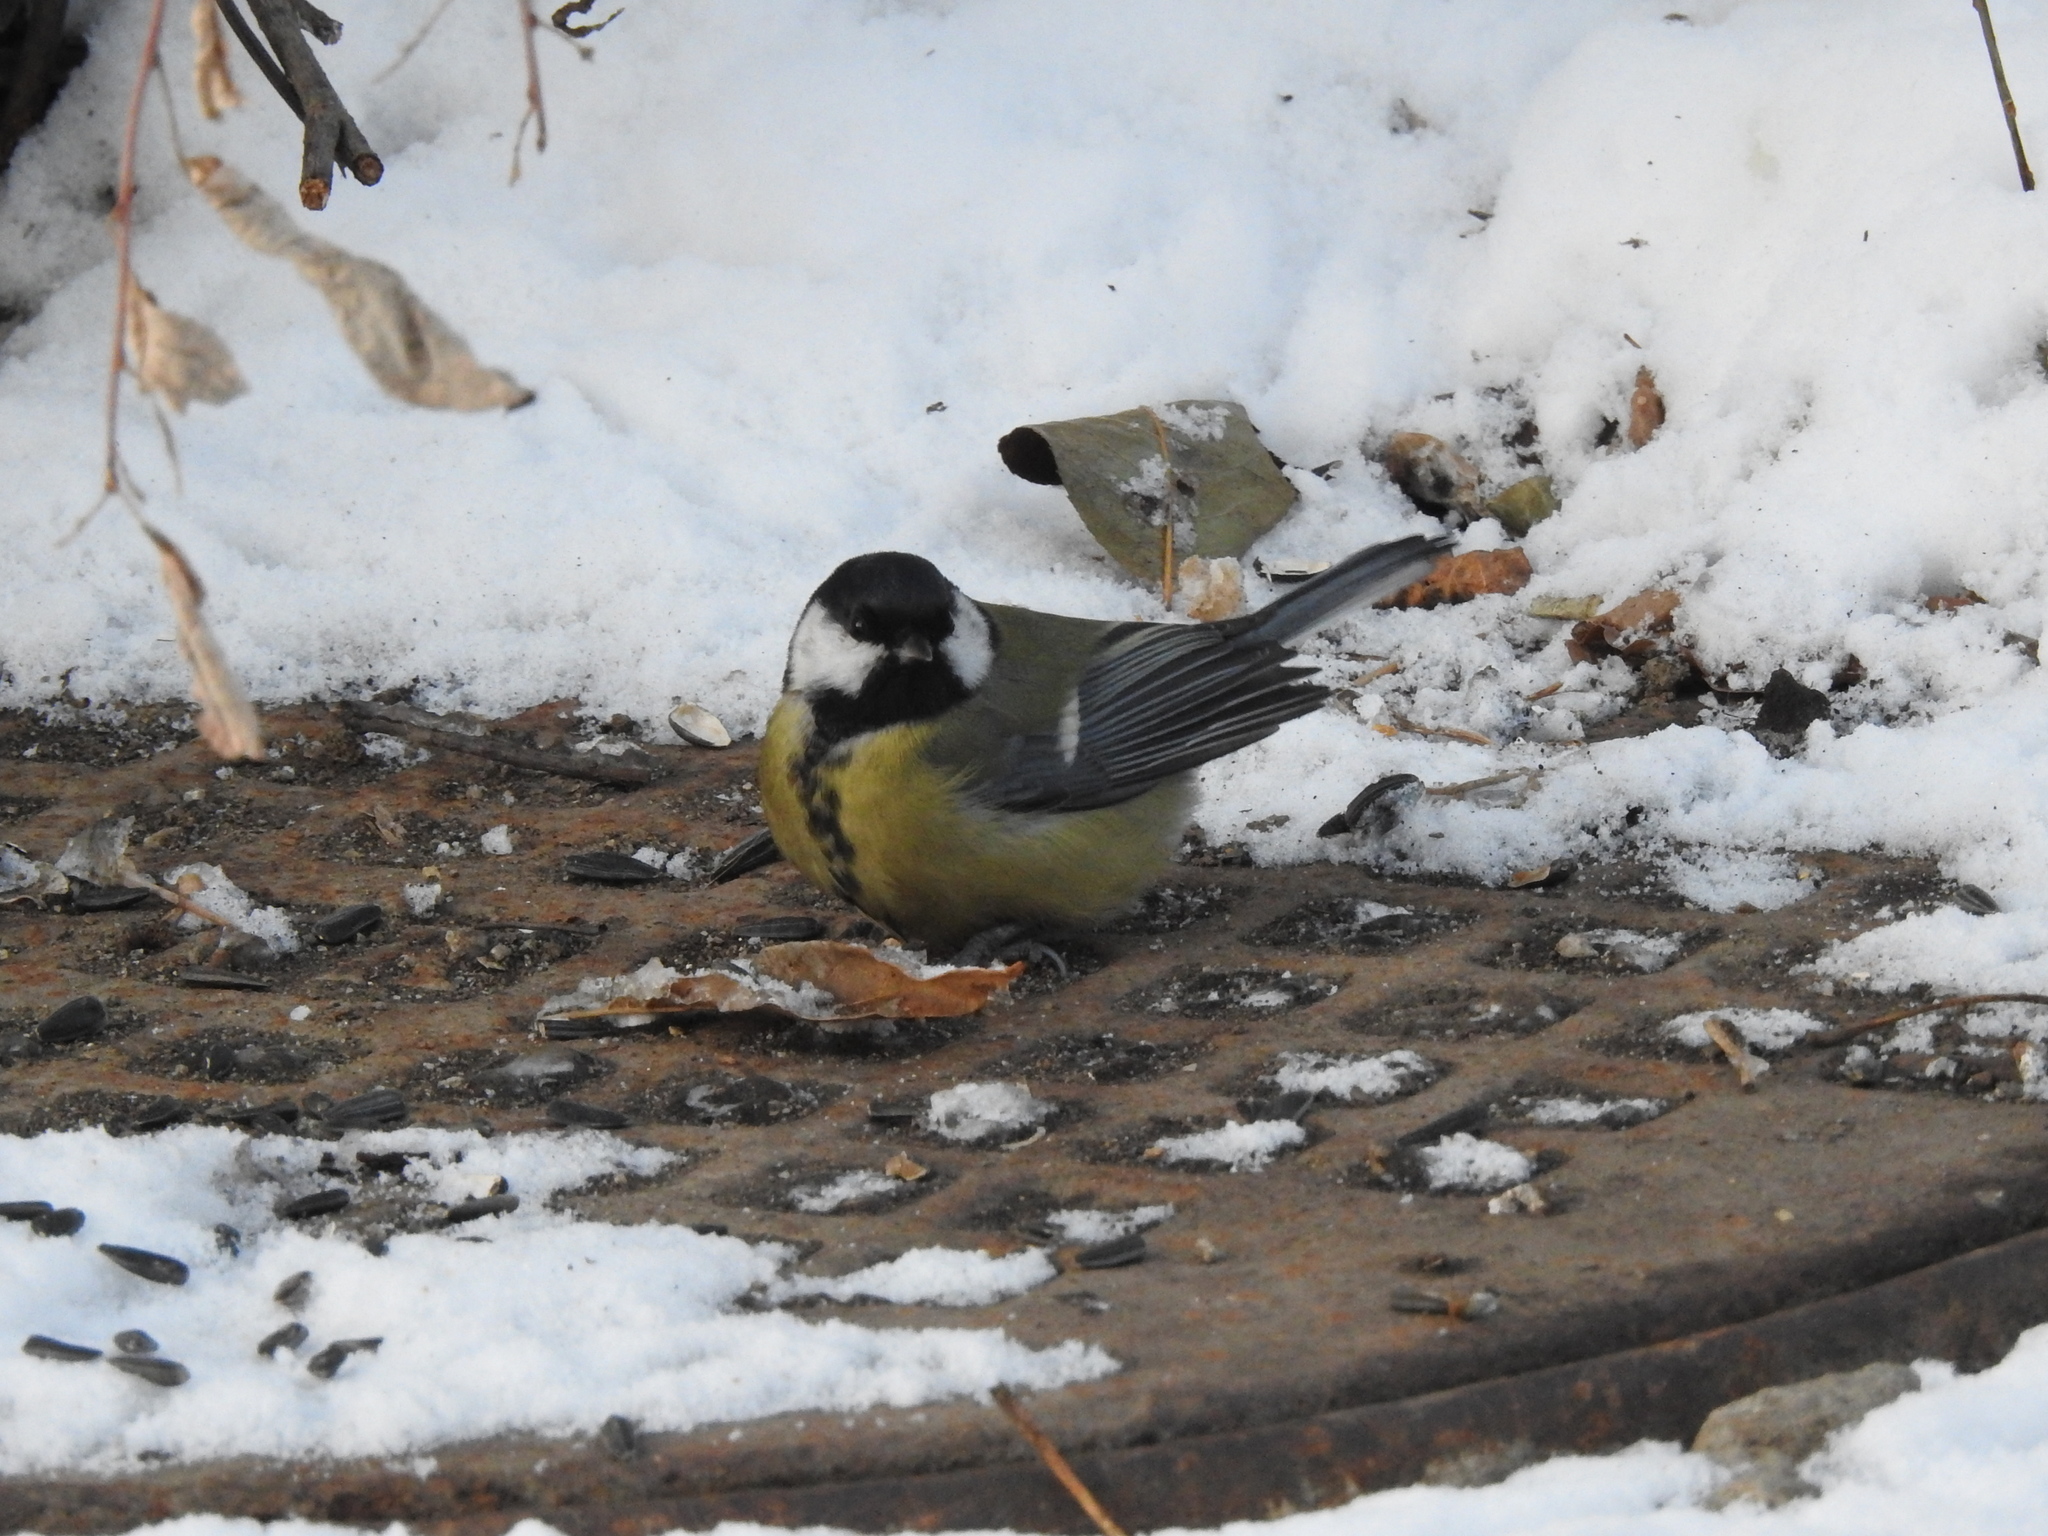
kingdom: Animalia
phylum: Chordata
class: Aves
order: Passeriformes
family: Paridae
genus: Parus
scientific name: Parus major
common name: Great tit
